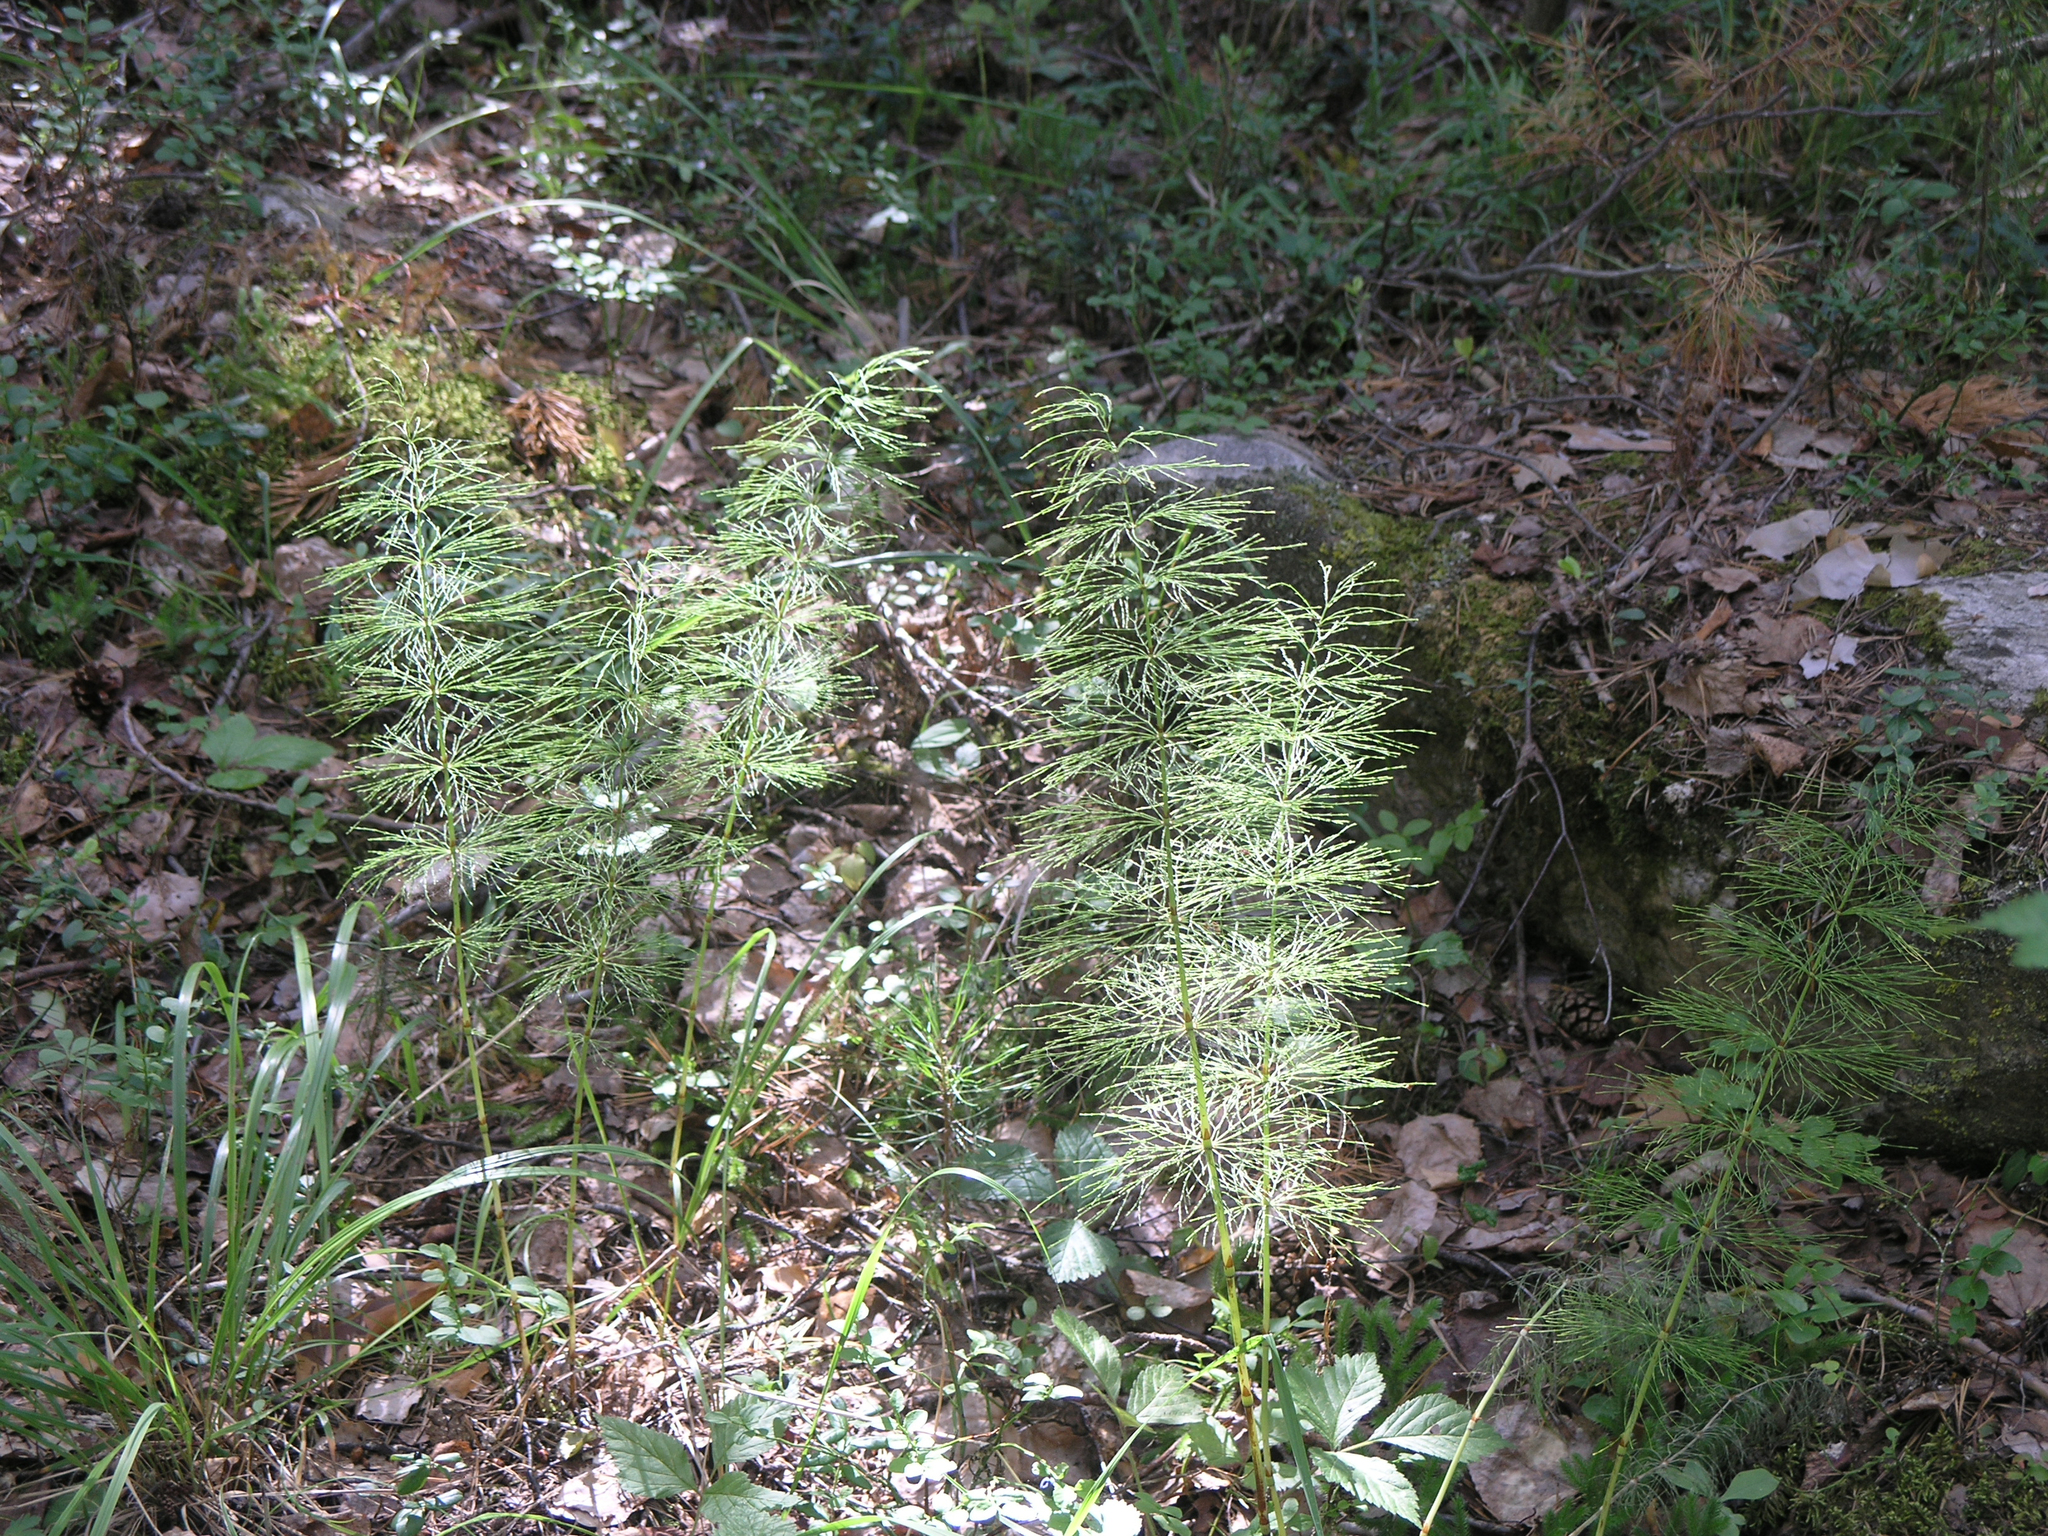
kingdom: Plantae
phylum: Tracheophyta
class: Polypodiopsida
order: Equisetales
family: Equisetaceae
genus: Equisetum
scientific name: Equisetum sylvaticum
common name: Wood horsetail
